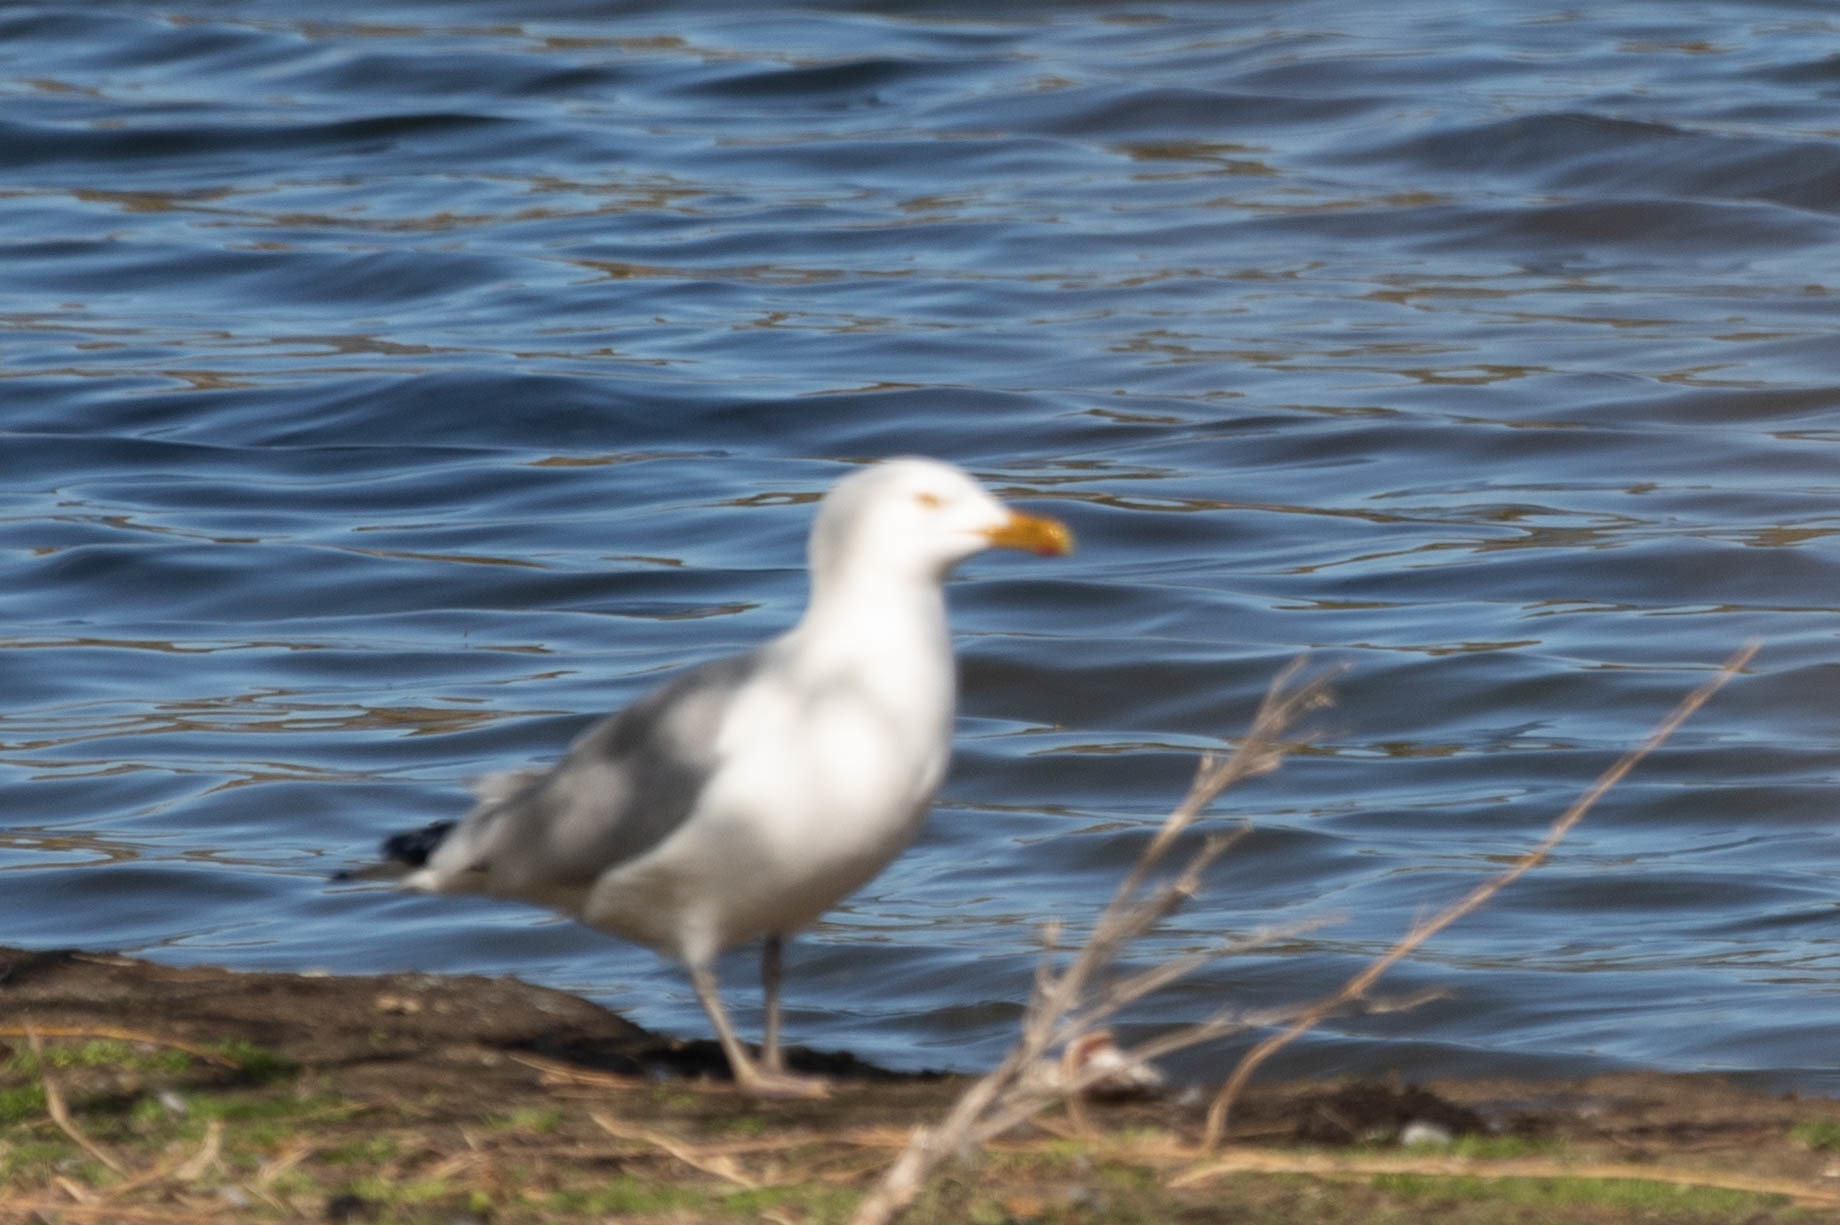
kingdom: Animalia
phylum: Chordata
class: Aves
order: Charadriiformes
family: Laridae
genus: Larus
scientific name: Larus argentatus
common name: Herring gull
